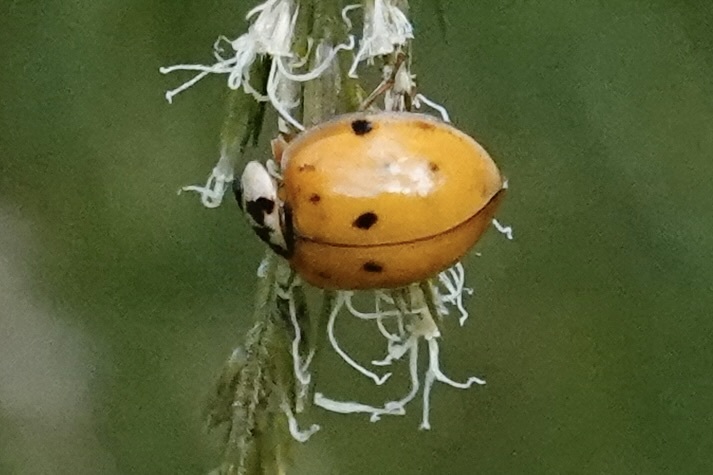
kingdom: Animalia
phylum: Arthropoda
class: Insecta
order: Coleoptera
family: Coccinellidae
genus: Harmonia
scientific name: Harmonia axyridis
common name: Harlequin ladybird
